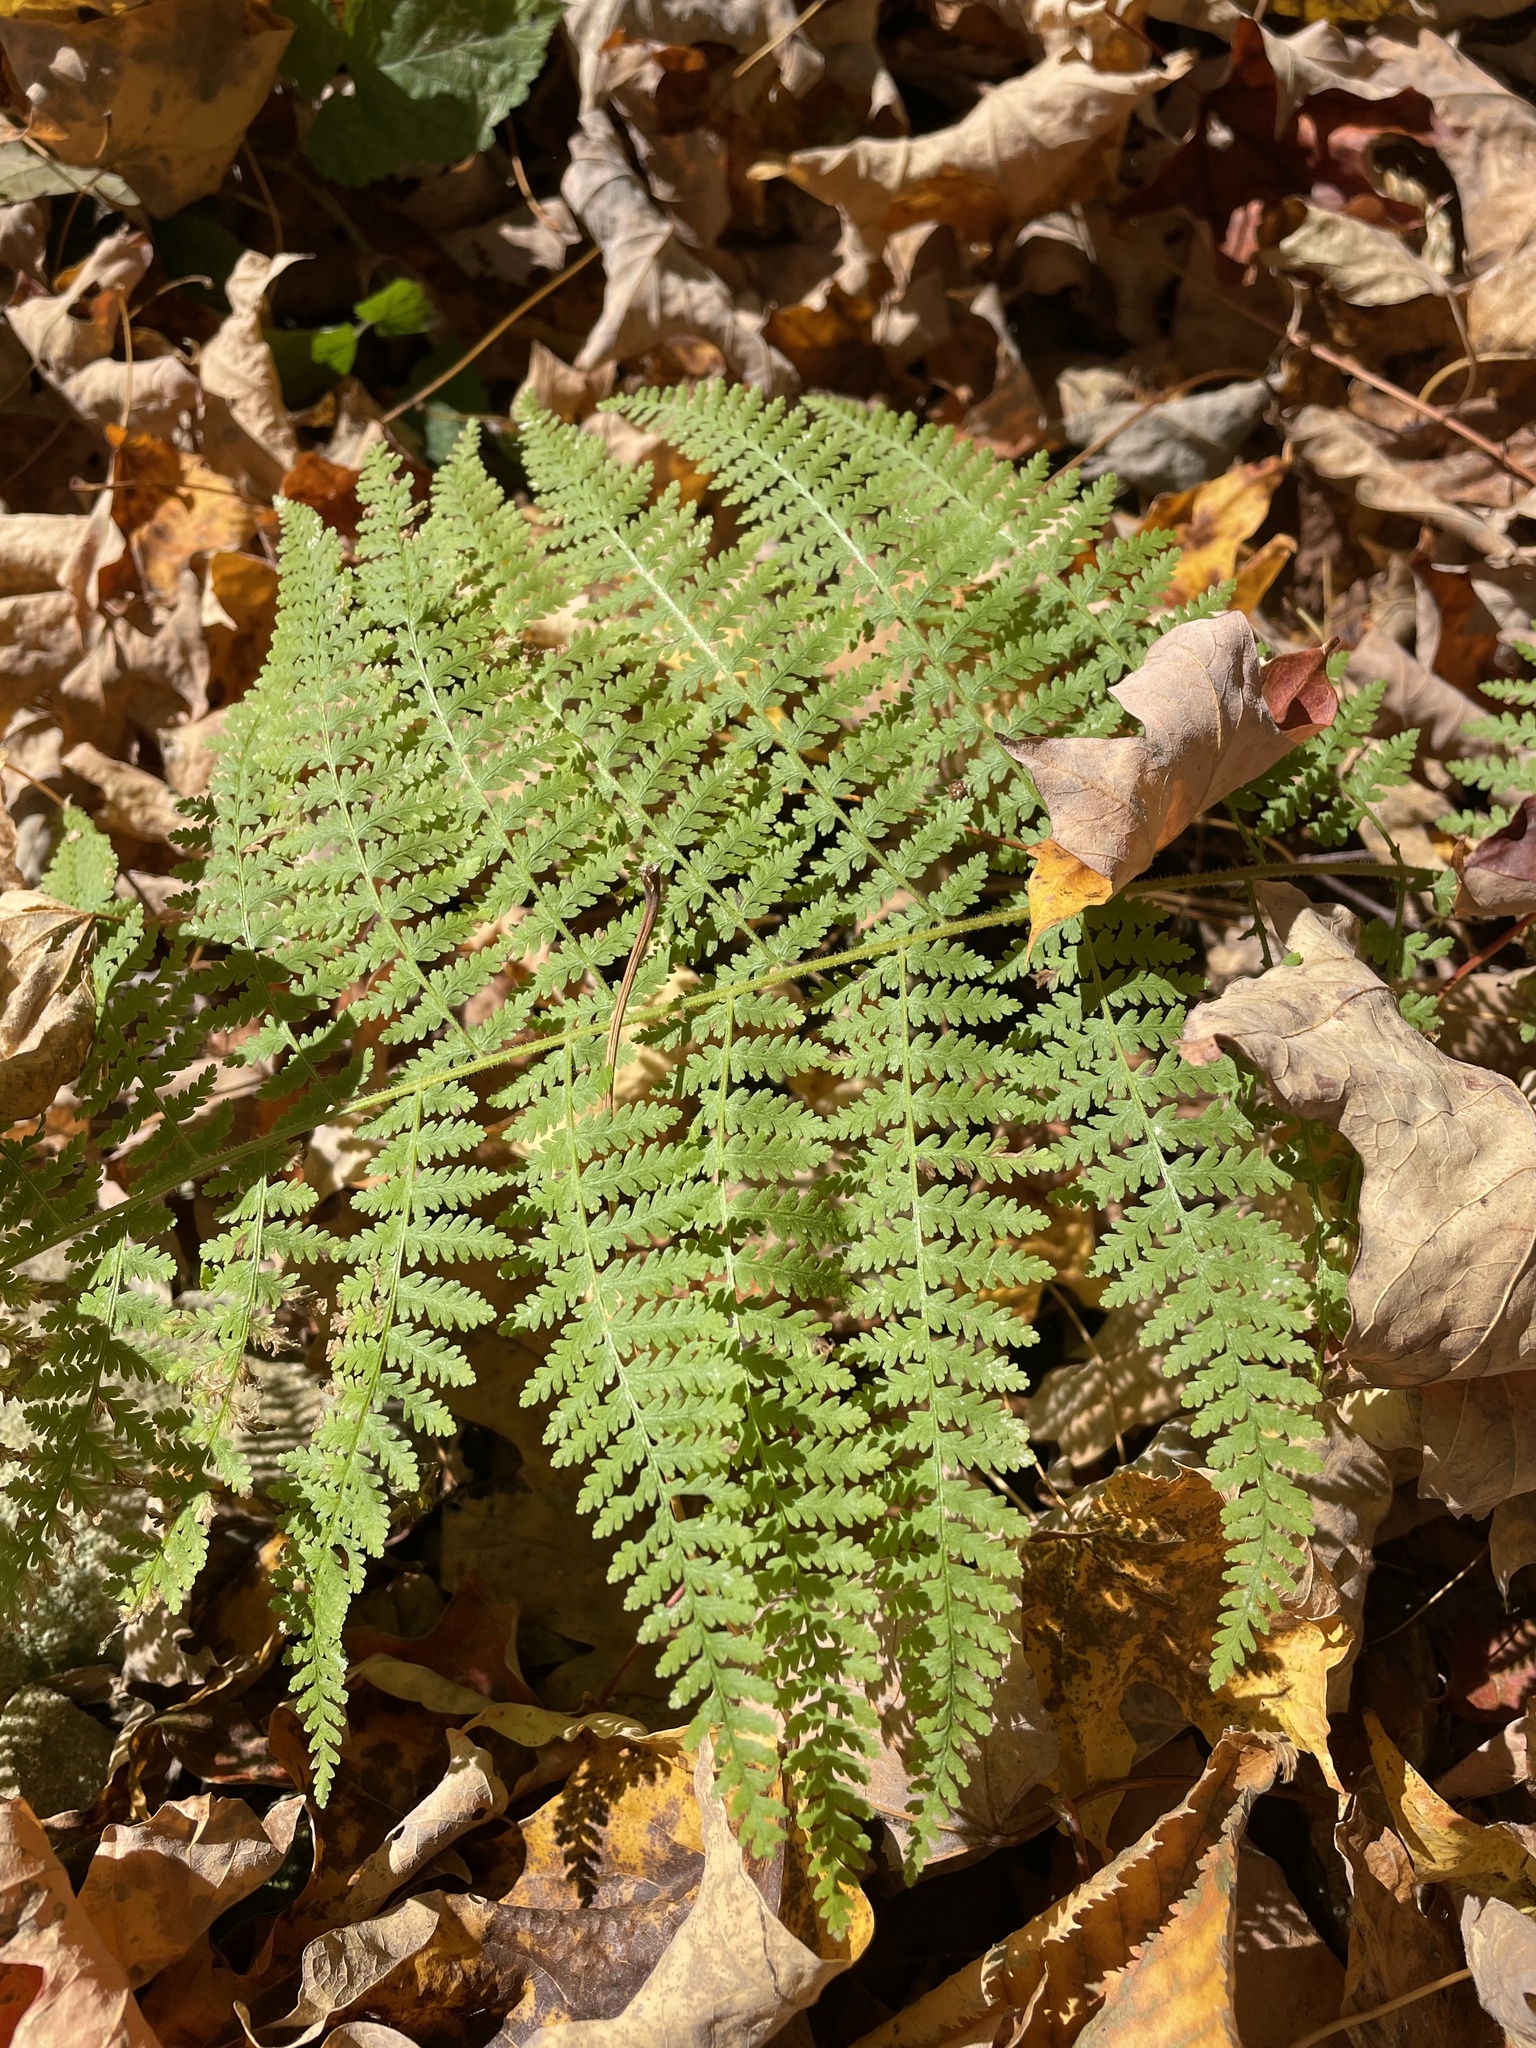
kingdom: Plantae
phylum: Tracheophyta
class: Polypodiopsida
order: Polypodiales
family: Dennstaedtiaceae
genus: Sitobolium
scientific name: Sitobolium punctilobum
